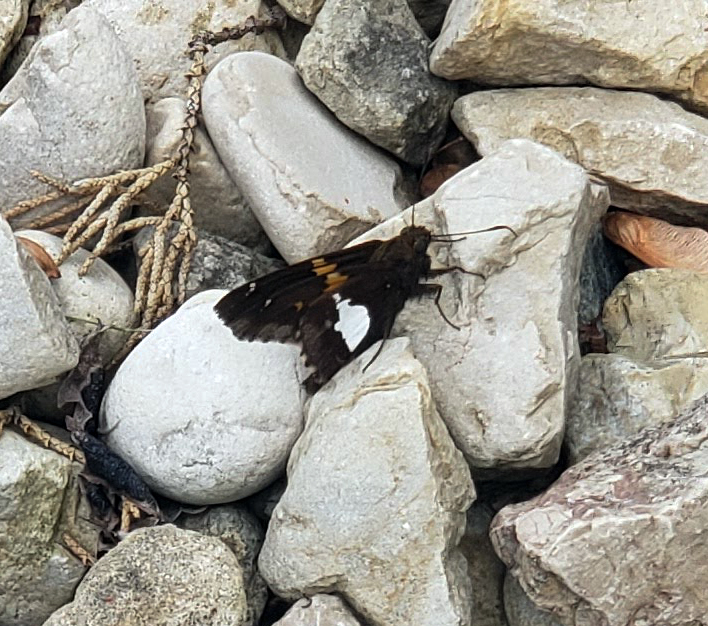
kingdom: Animalia
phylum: Arthropoda
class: Insecta
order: Lepidoptera
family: Hesperiidae
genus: Epargyreus
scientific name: Epargyreus clarus
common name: Silver-spotted skipper
